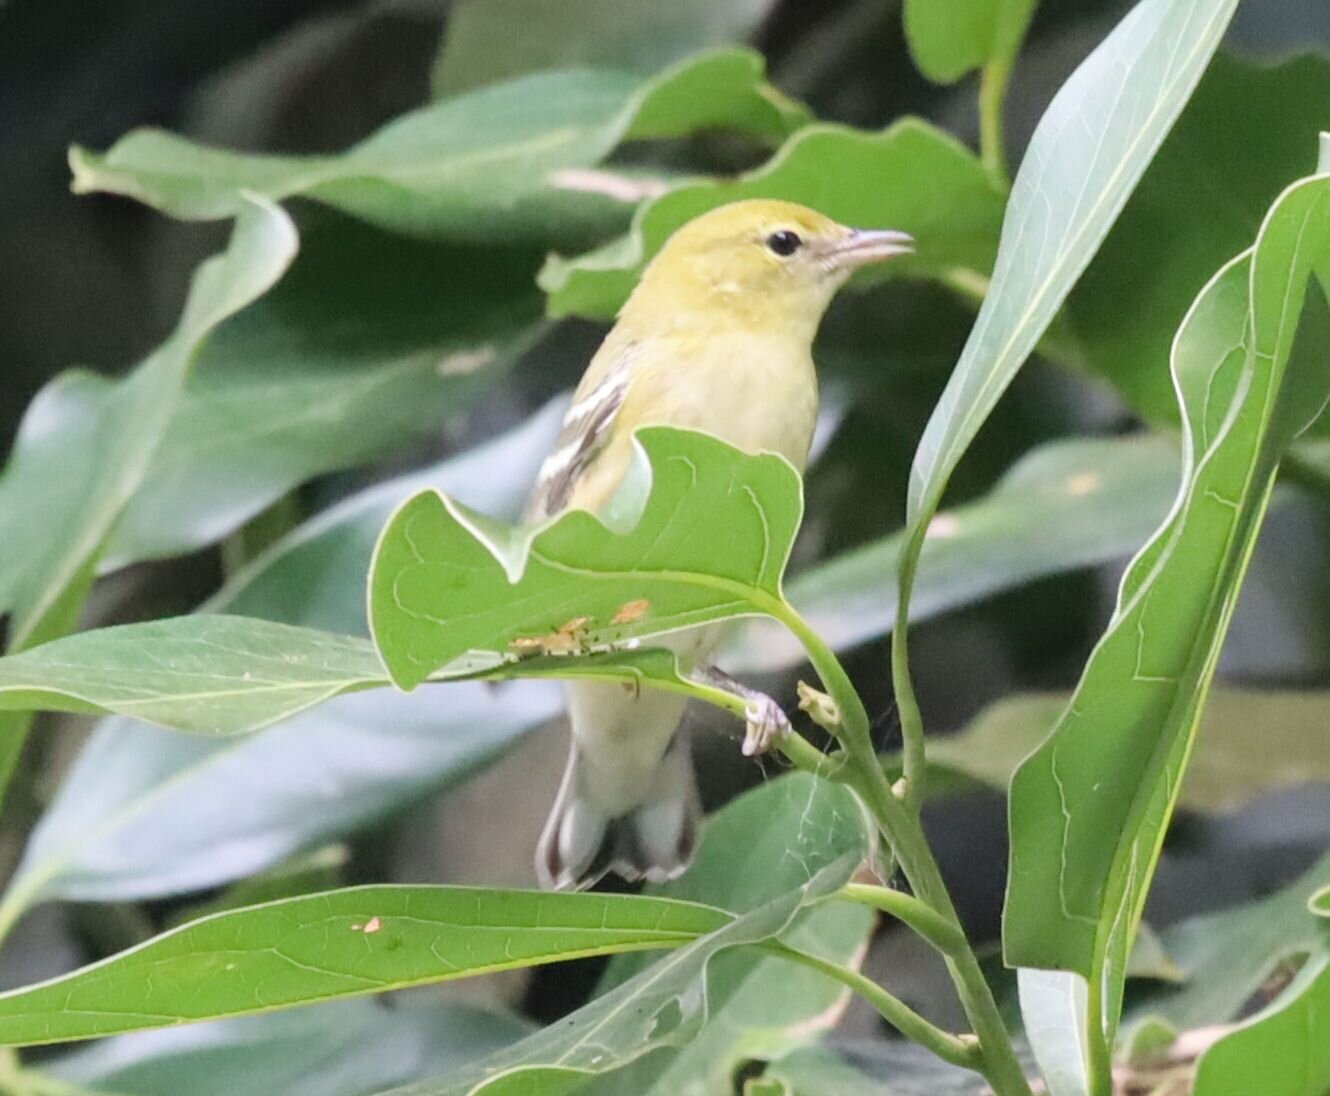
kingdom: Animalia
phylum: Chordata
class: Aves
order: Passeriformes
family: Parulidae
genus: Setophaga
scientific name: Setophaga castanea
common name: Bay-breasted warbler
